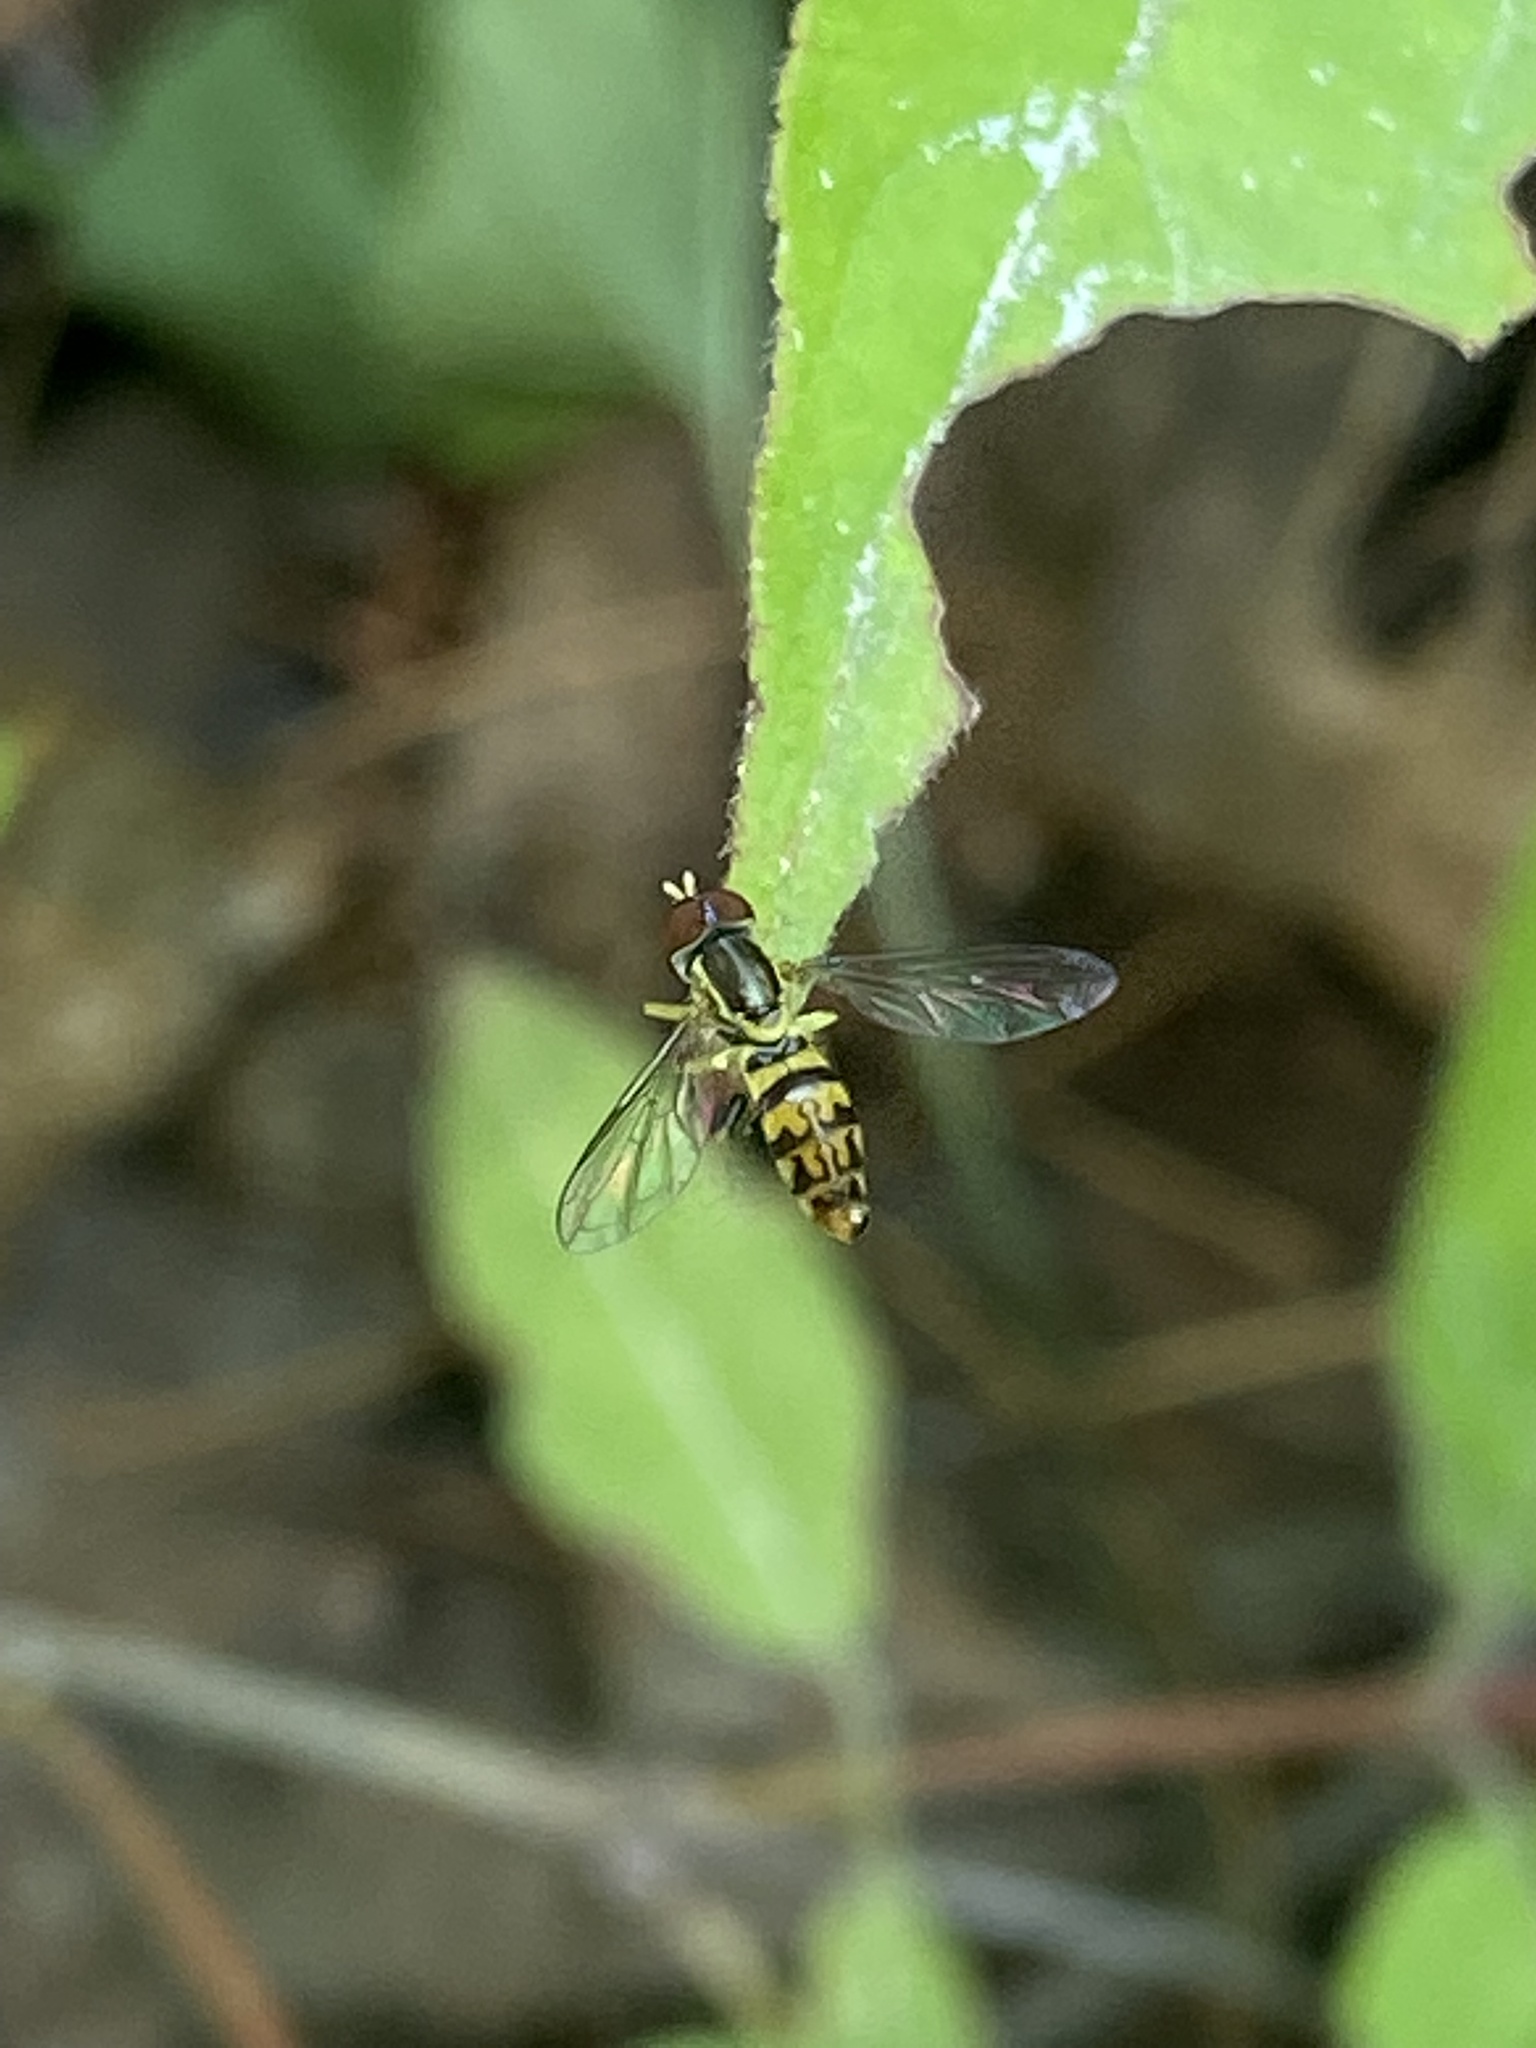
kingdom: Animalia
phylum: Arthropoda
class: Insecta
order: Diptera
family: Syrphidae
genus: Toxomerus
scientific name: Toxomerus geminatus
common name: Eastern calligrapher
